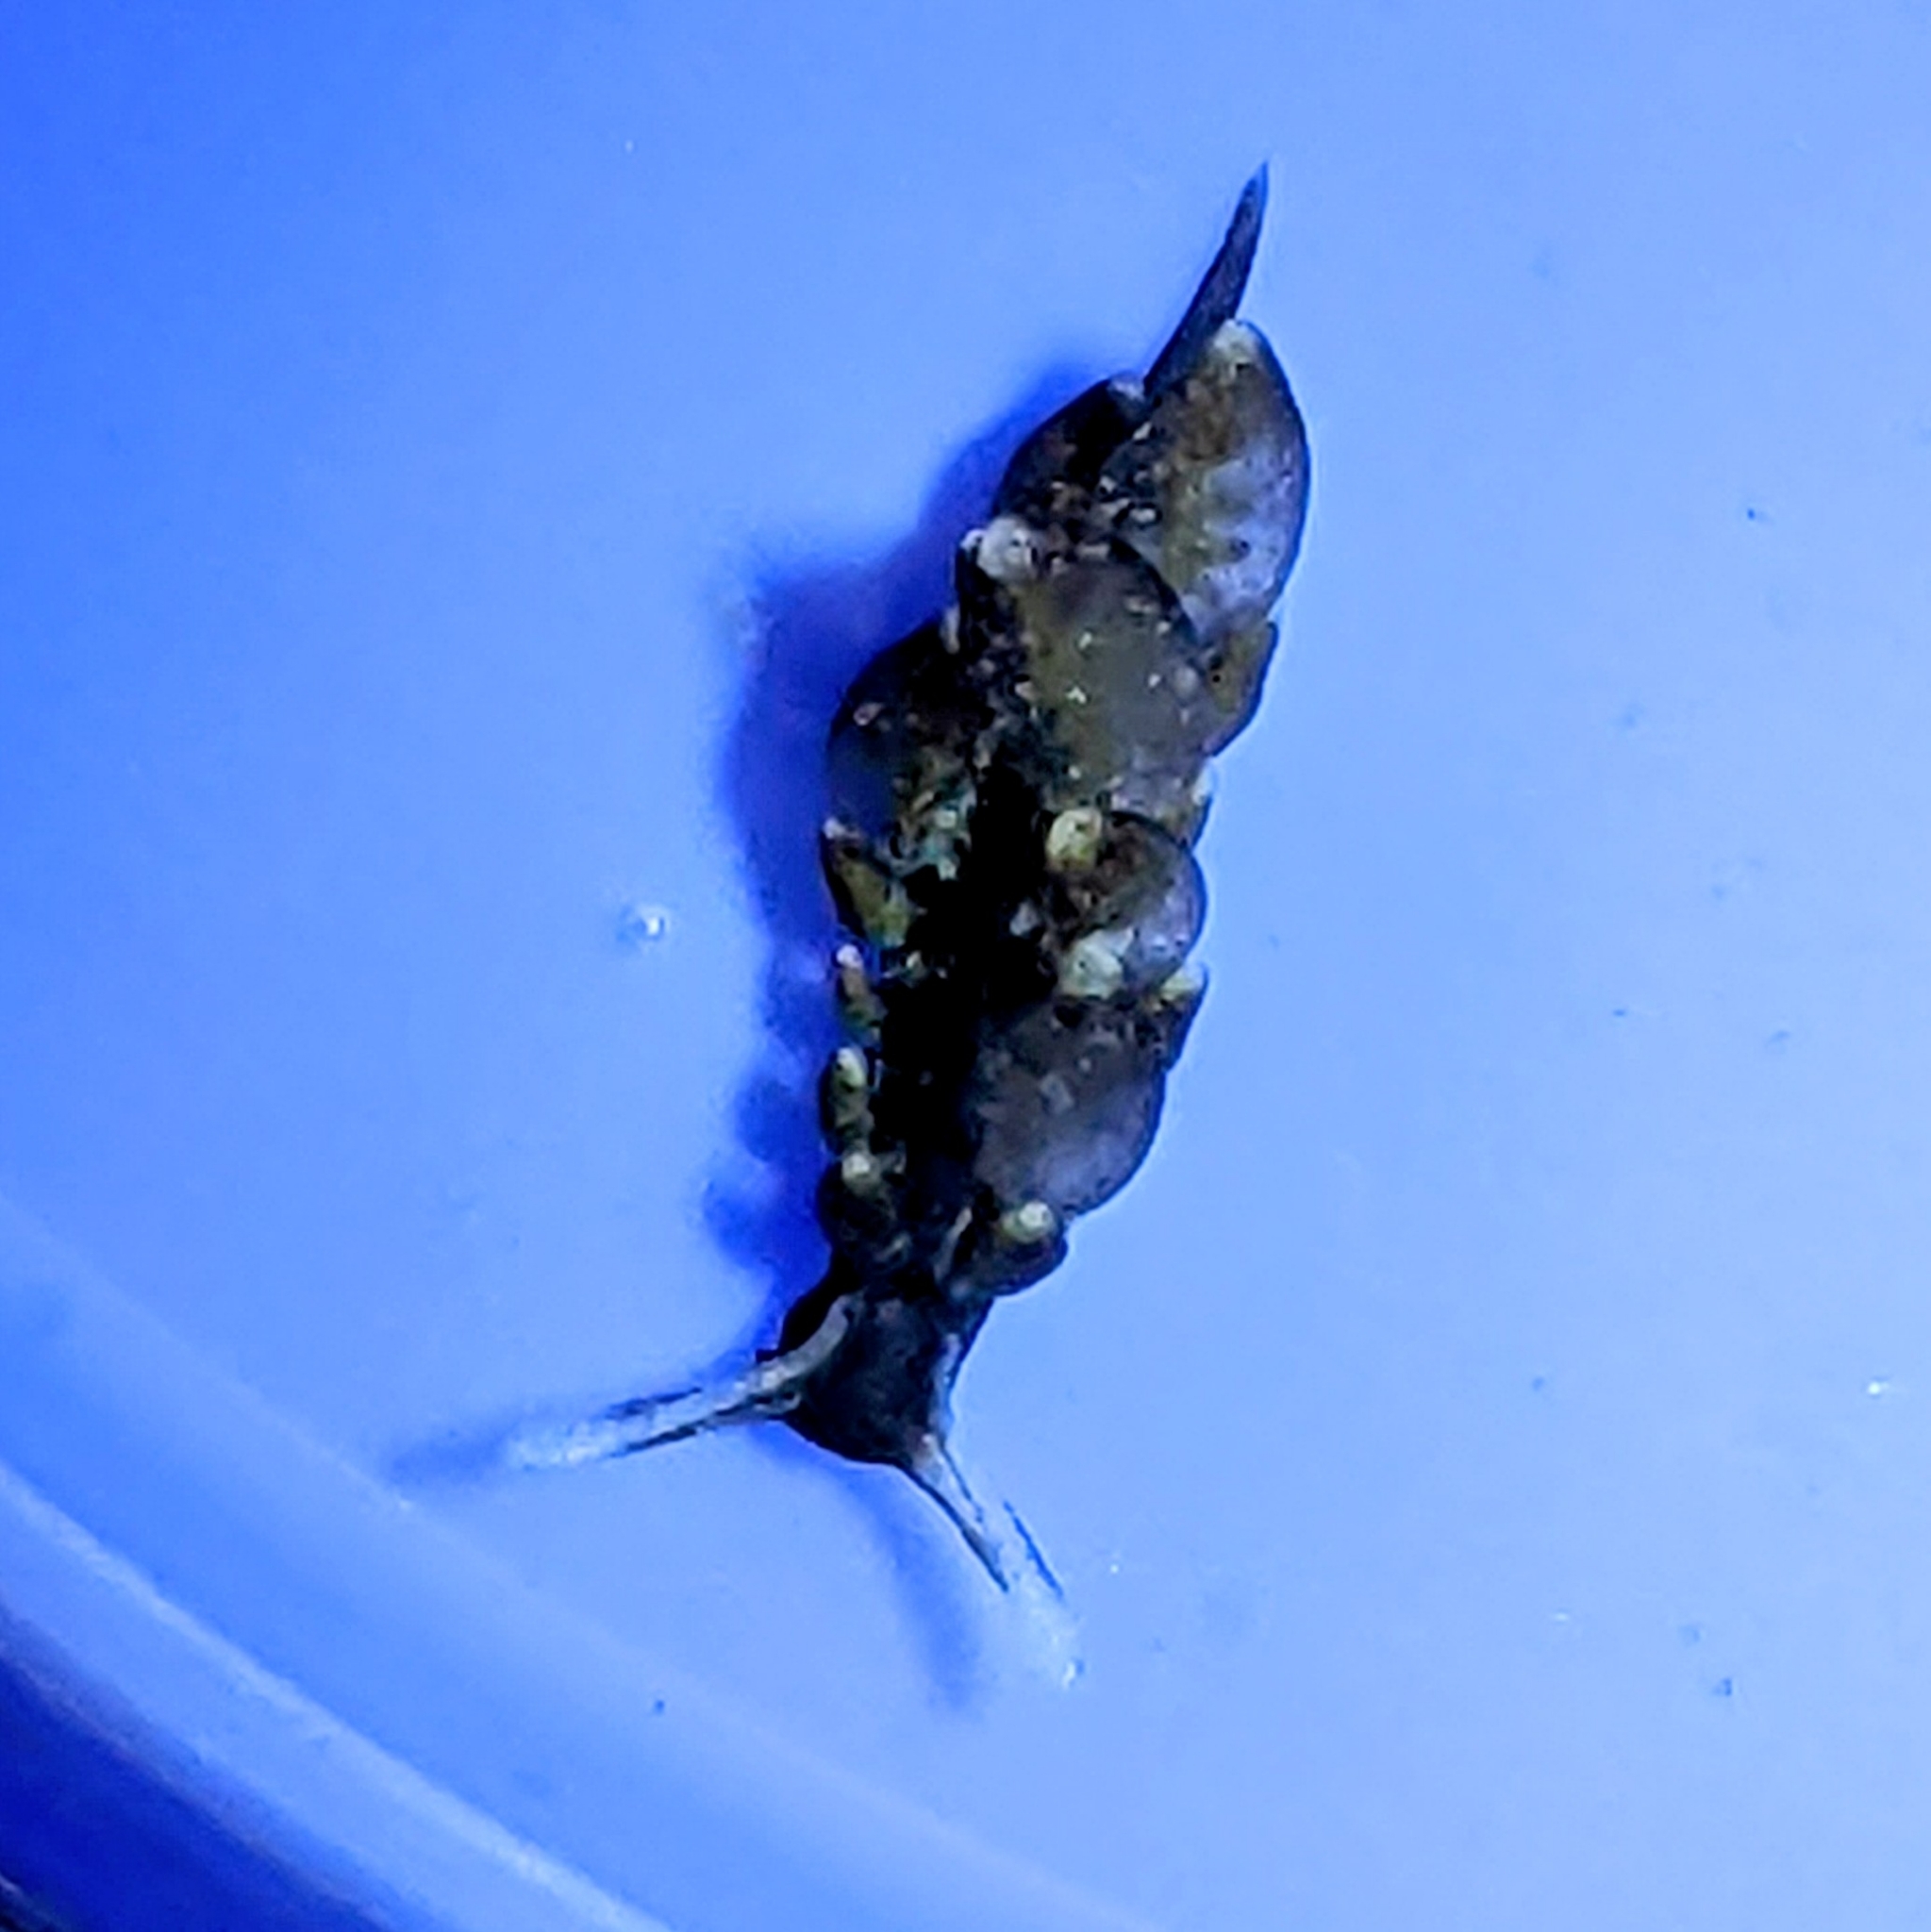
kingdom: Animalia
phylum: Mollusca
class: Gastropoda
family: Hermaeidae
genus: Aplysiopsis
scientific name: Aplysiopsis enteromorphae
